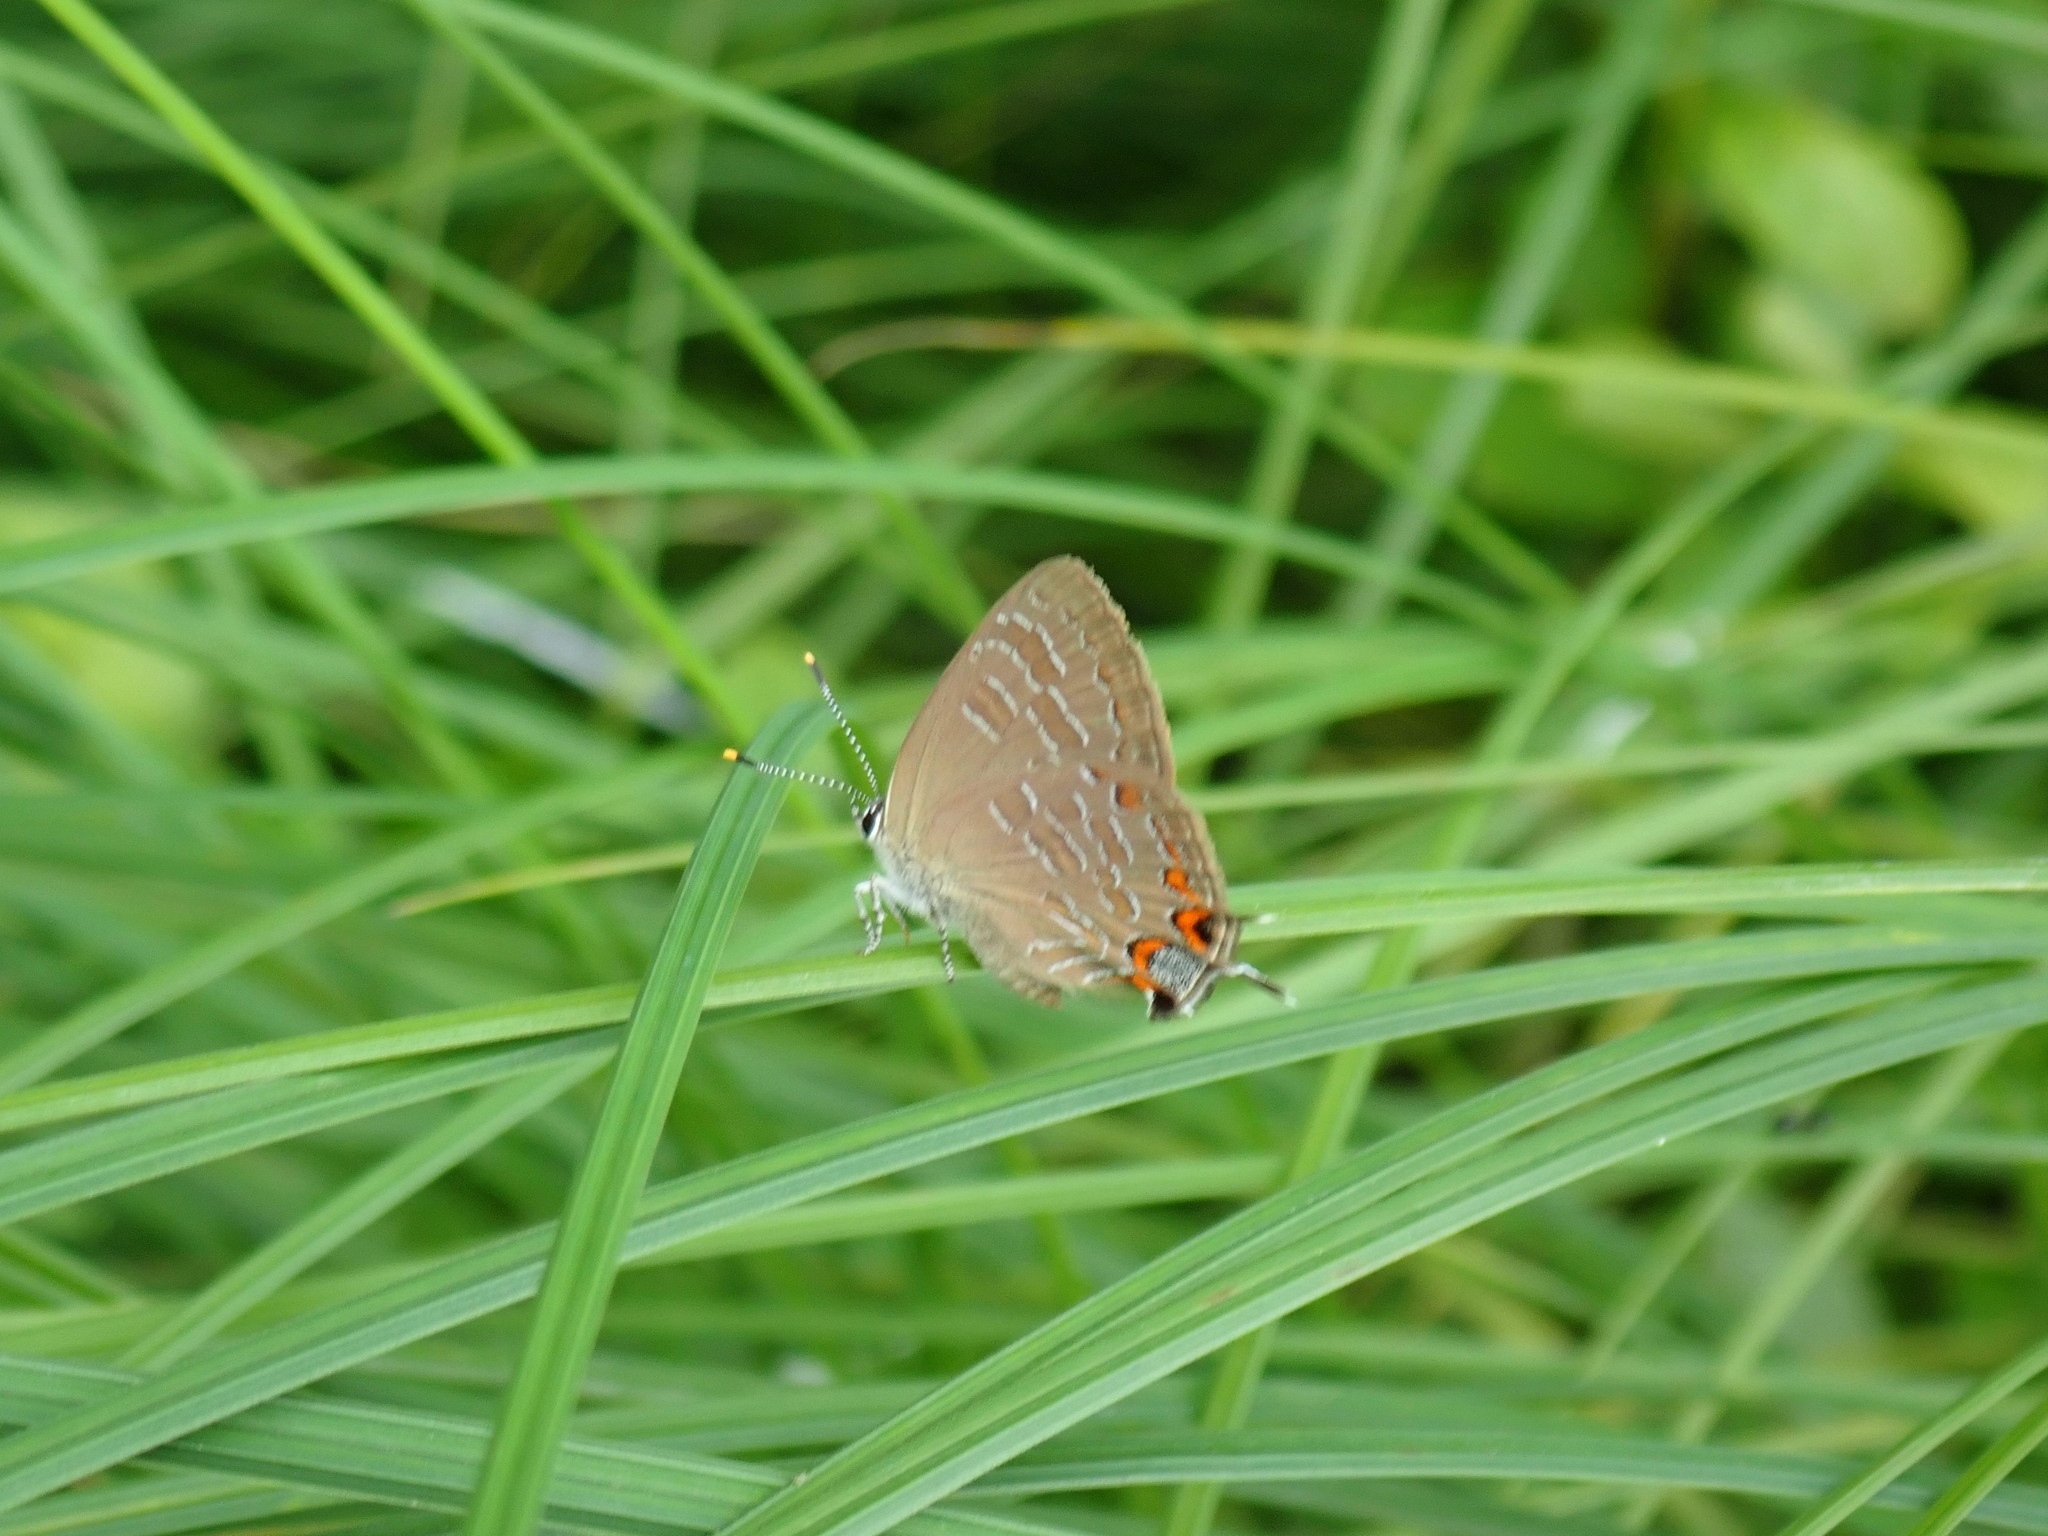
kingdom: Animalia
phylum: Arthropoda
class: Insecta
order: Lepidoptera
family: Lycaenidae
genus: Satyrium
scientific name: Satyrium liparops
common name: Striped hairstreak
